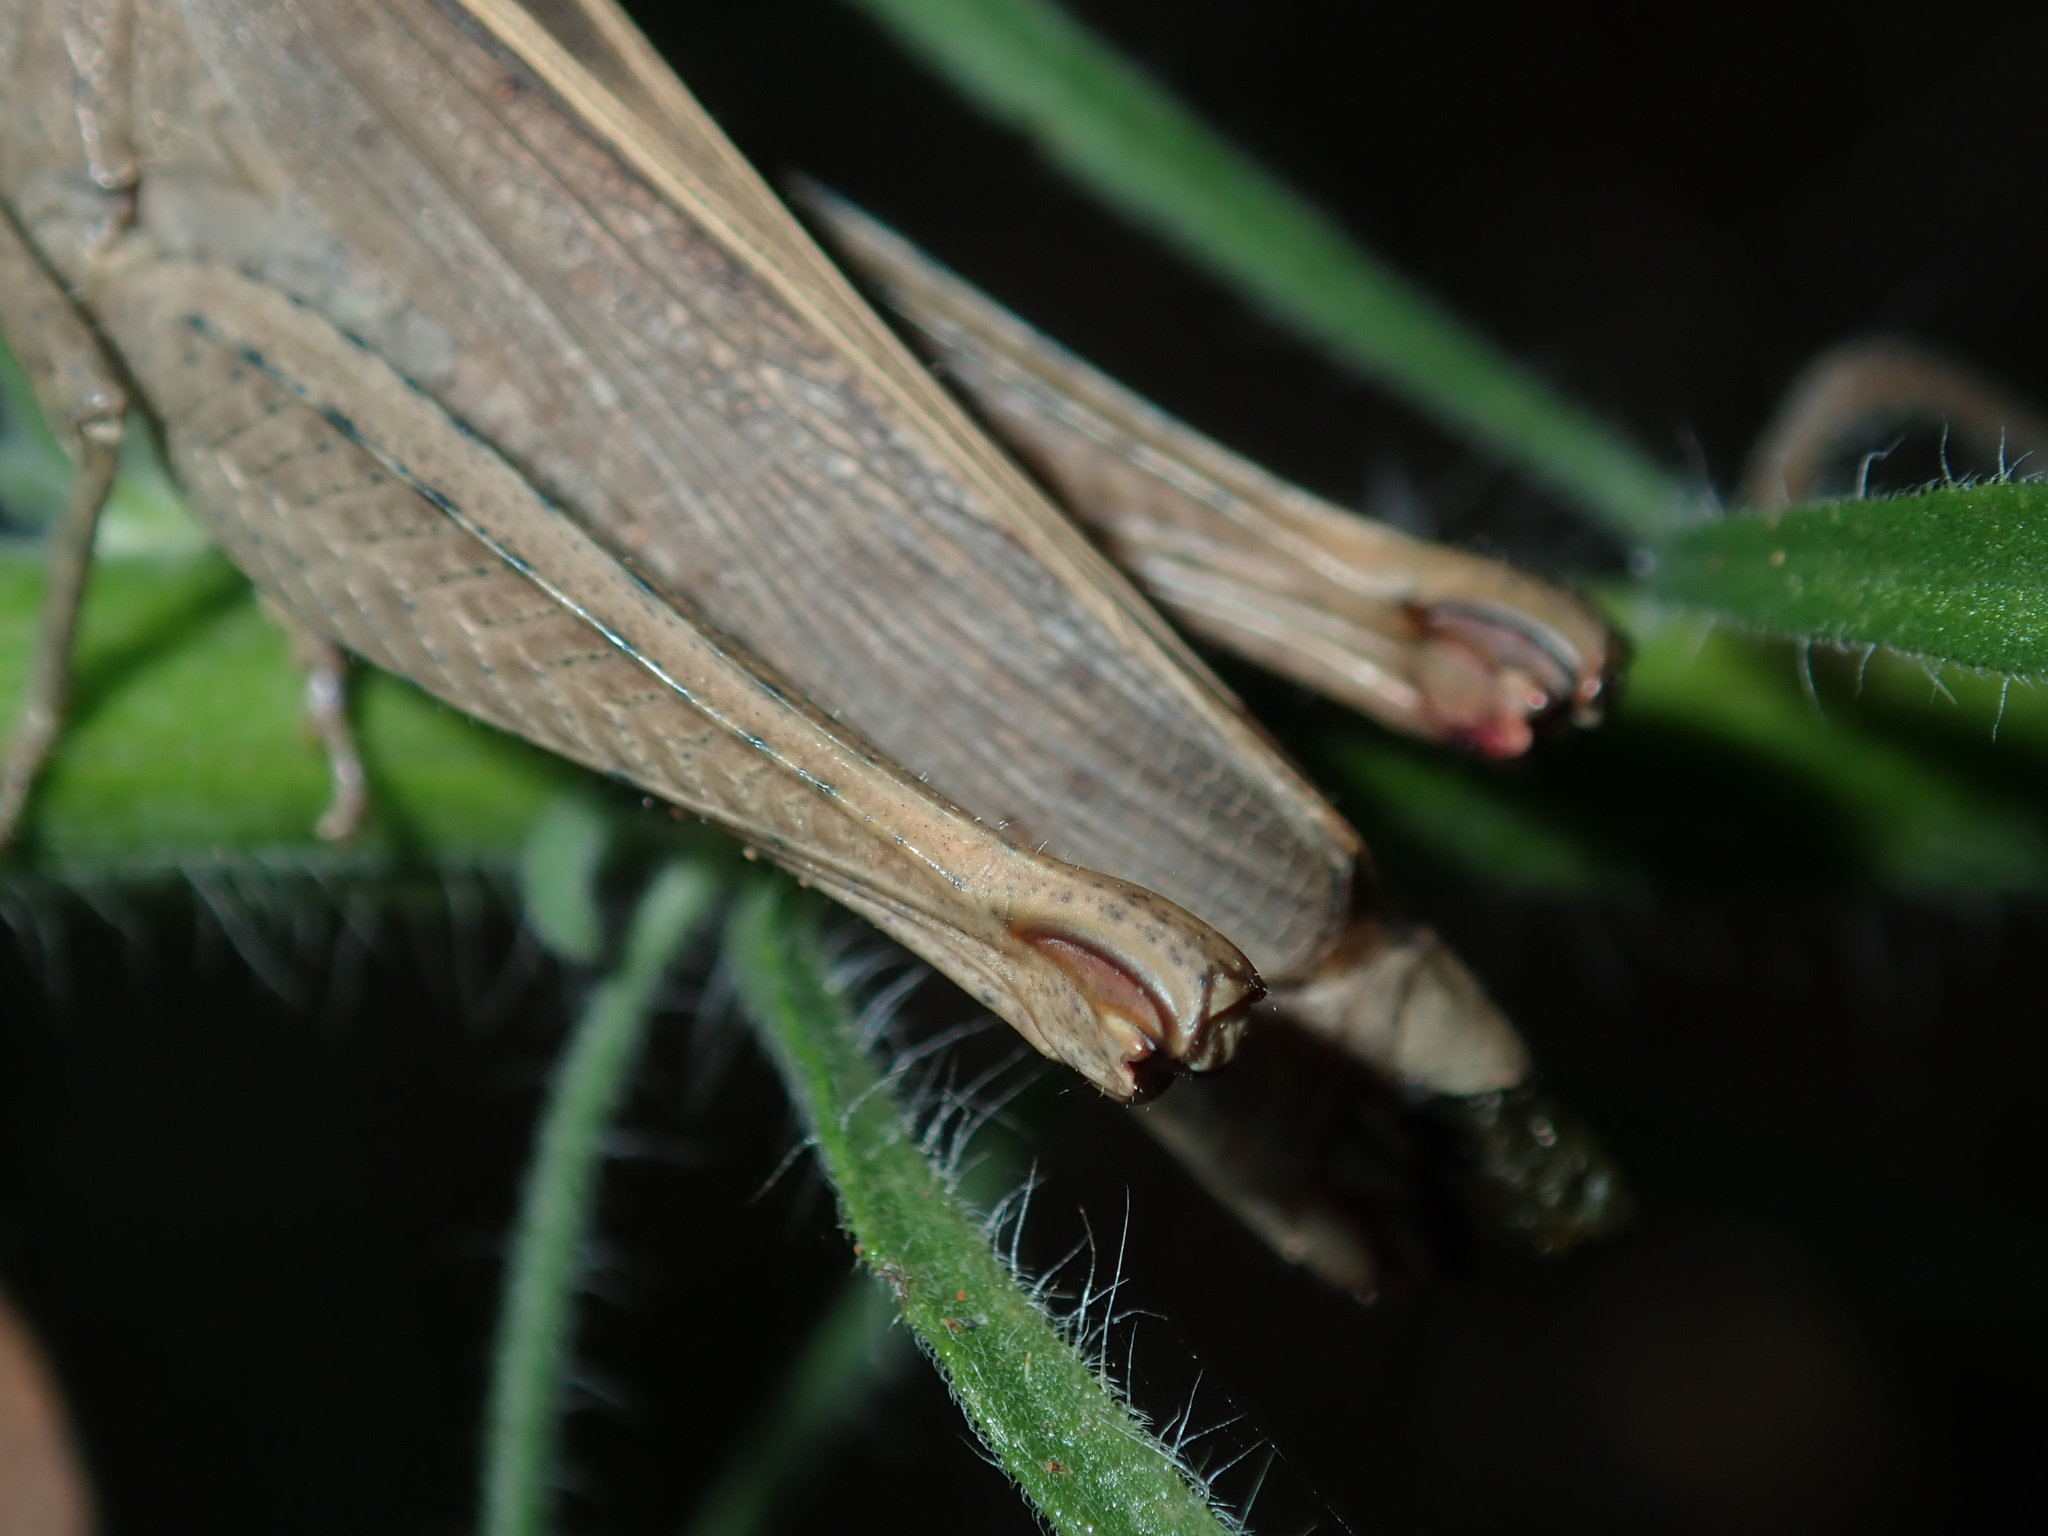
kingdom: Animalia
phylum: Arthropoda
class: Insecta
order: Orthoptera
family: Acrididae
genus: Apotropis
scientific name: Apotropis tricarinata
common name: Eastern striped grasshopper
